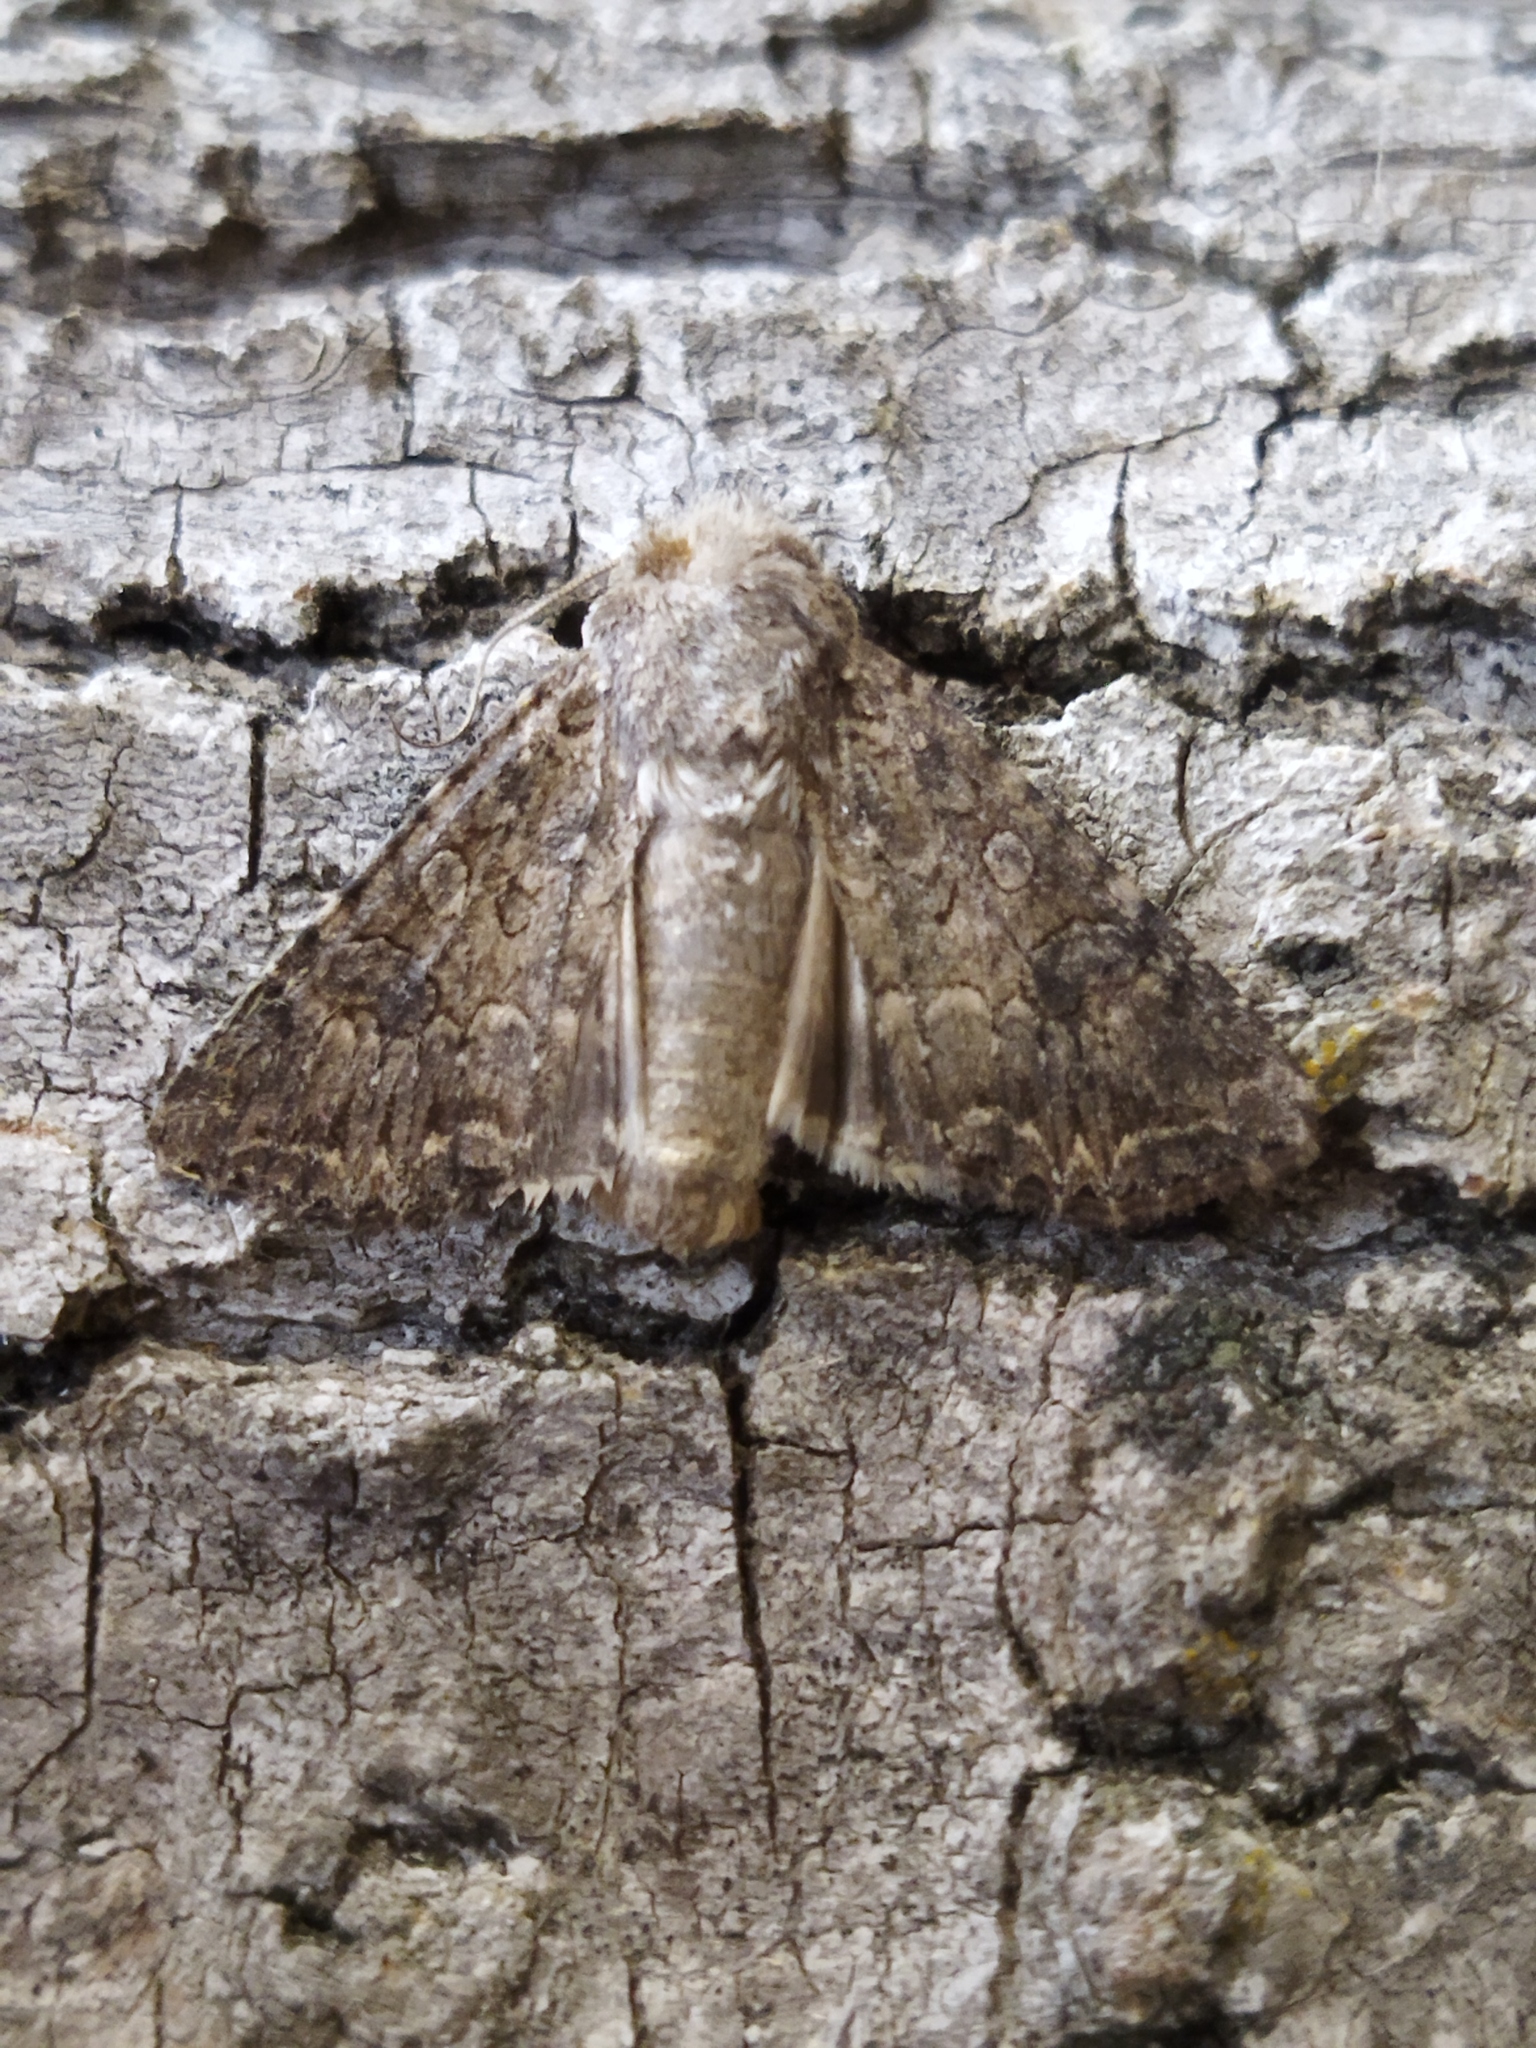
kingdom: Animalia
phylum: Arthropoda
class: Insecta
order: Lepidoptera
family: Noctuidae
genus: Anarta
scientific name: Anarta trifolii
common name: Clover cutworm moth
